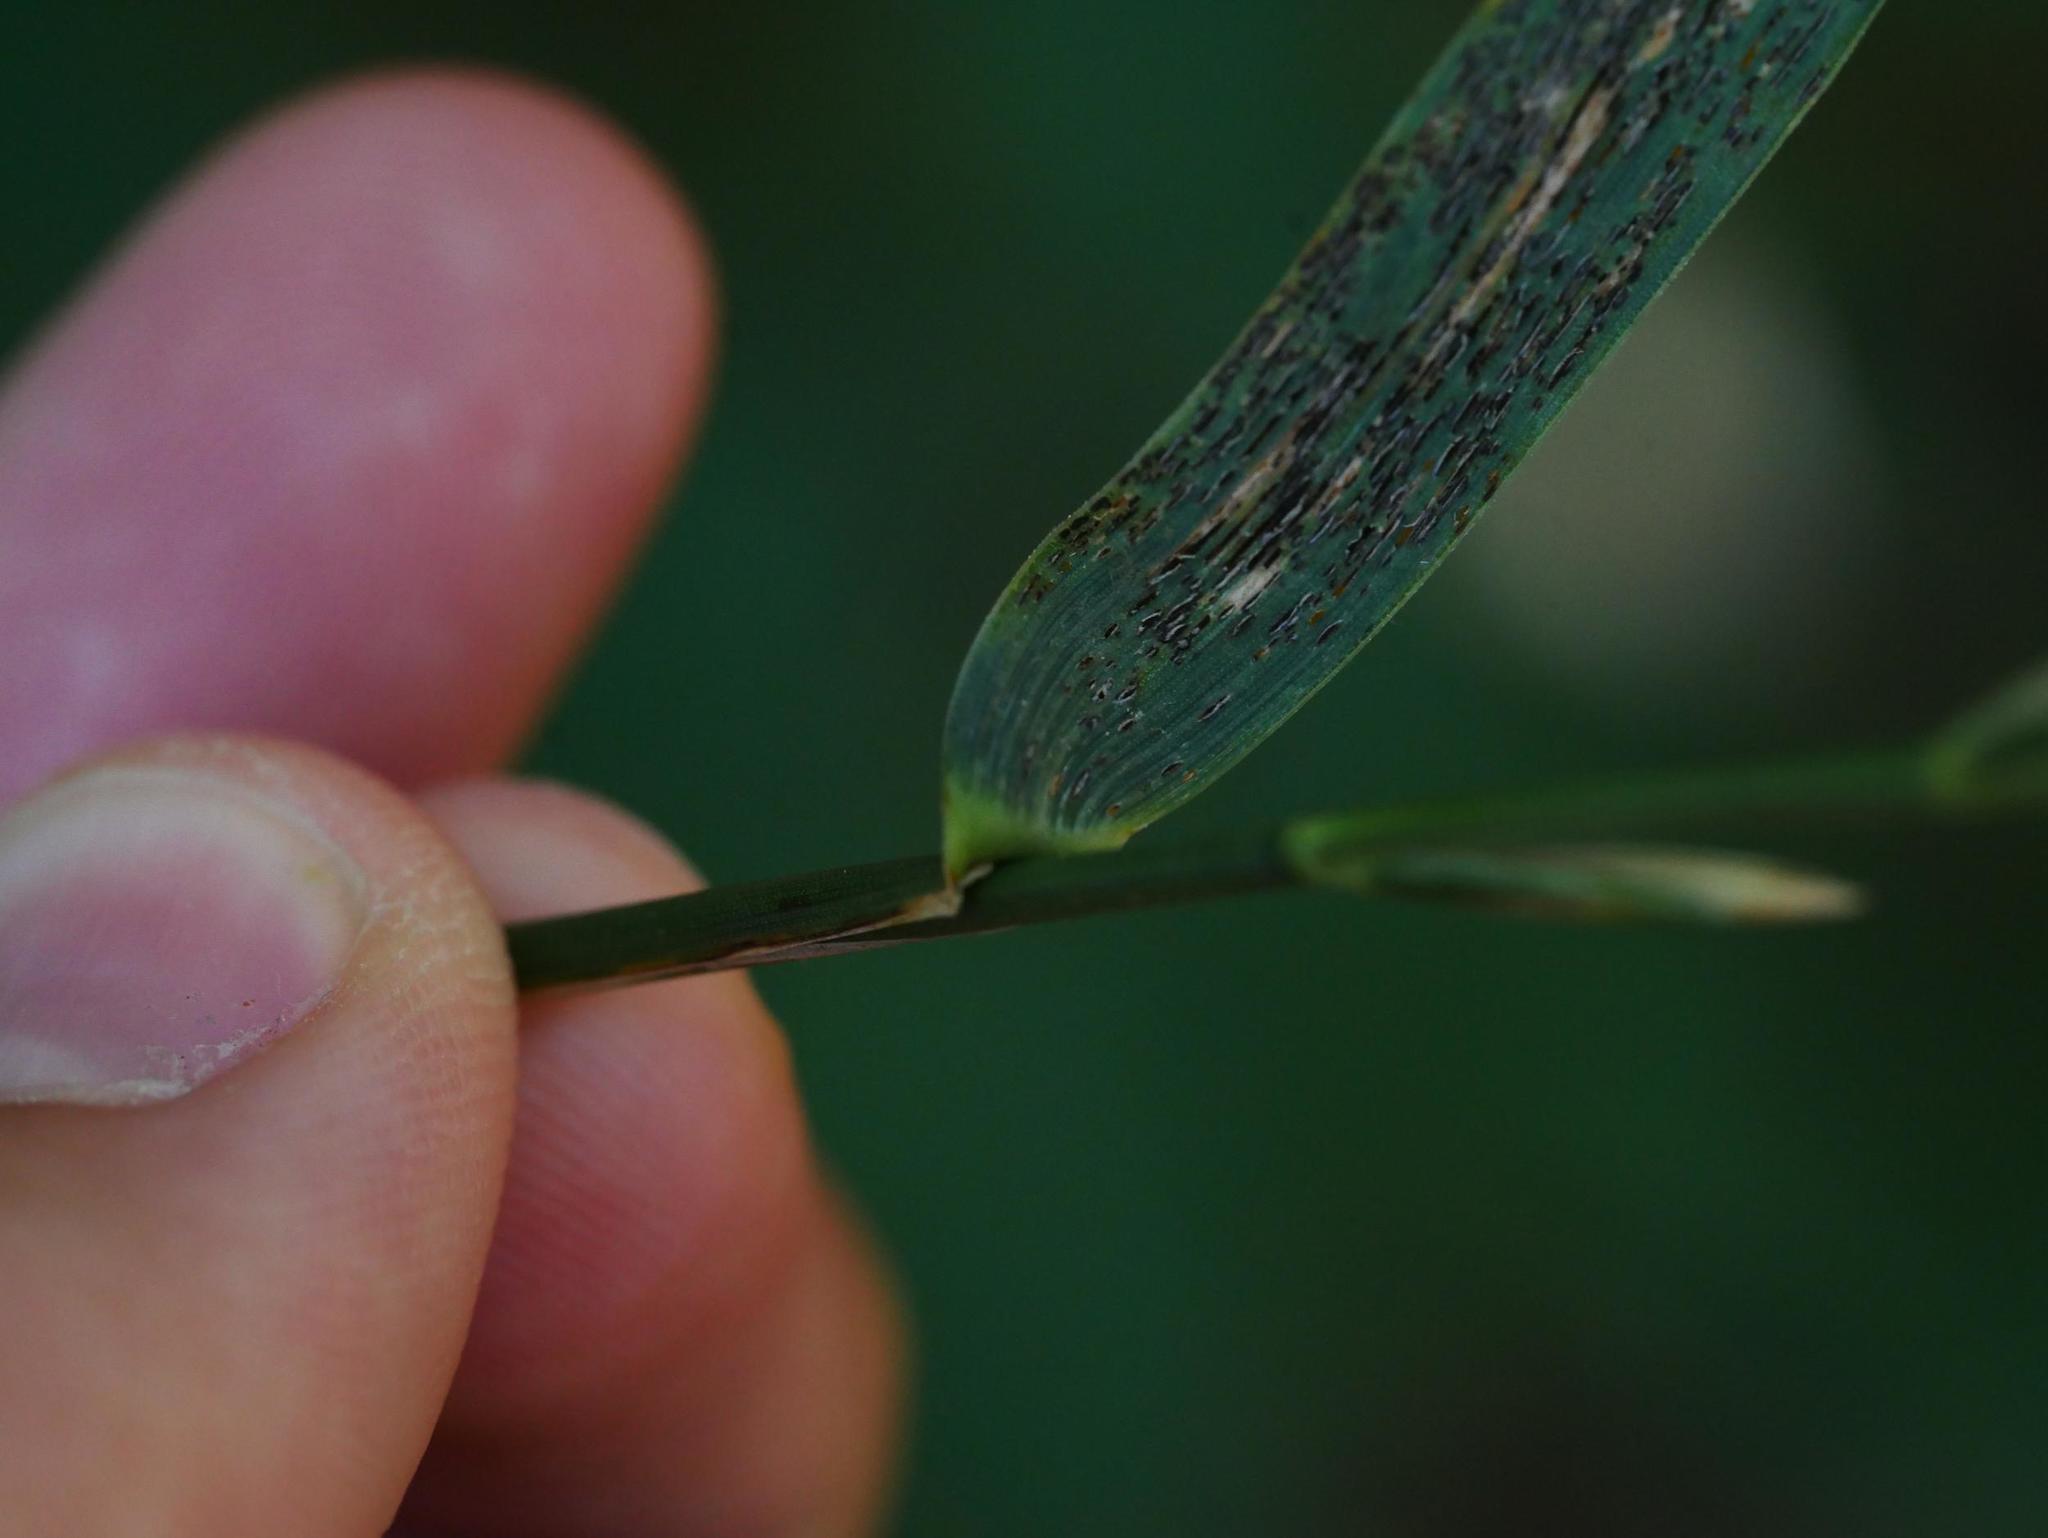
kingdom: Plantae
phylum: Tracheophyta
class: Liliopsida
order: Poales
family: Poaceae
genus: Elymus
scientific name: Elymus repens
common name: Quackgrass
